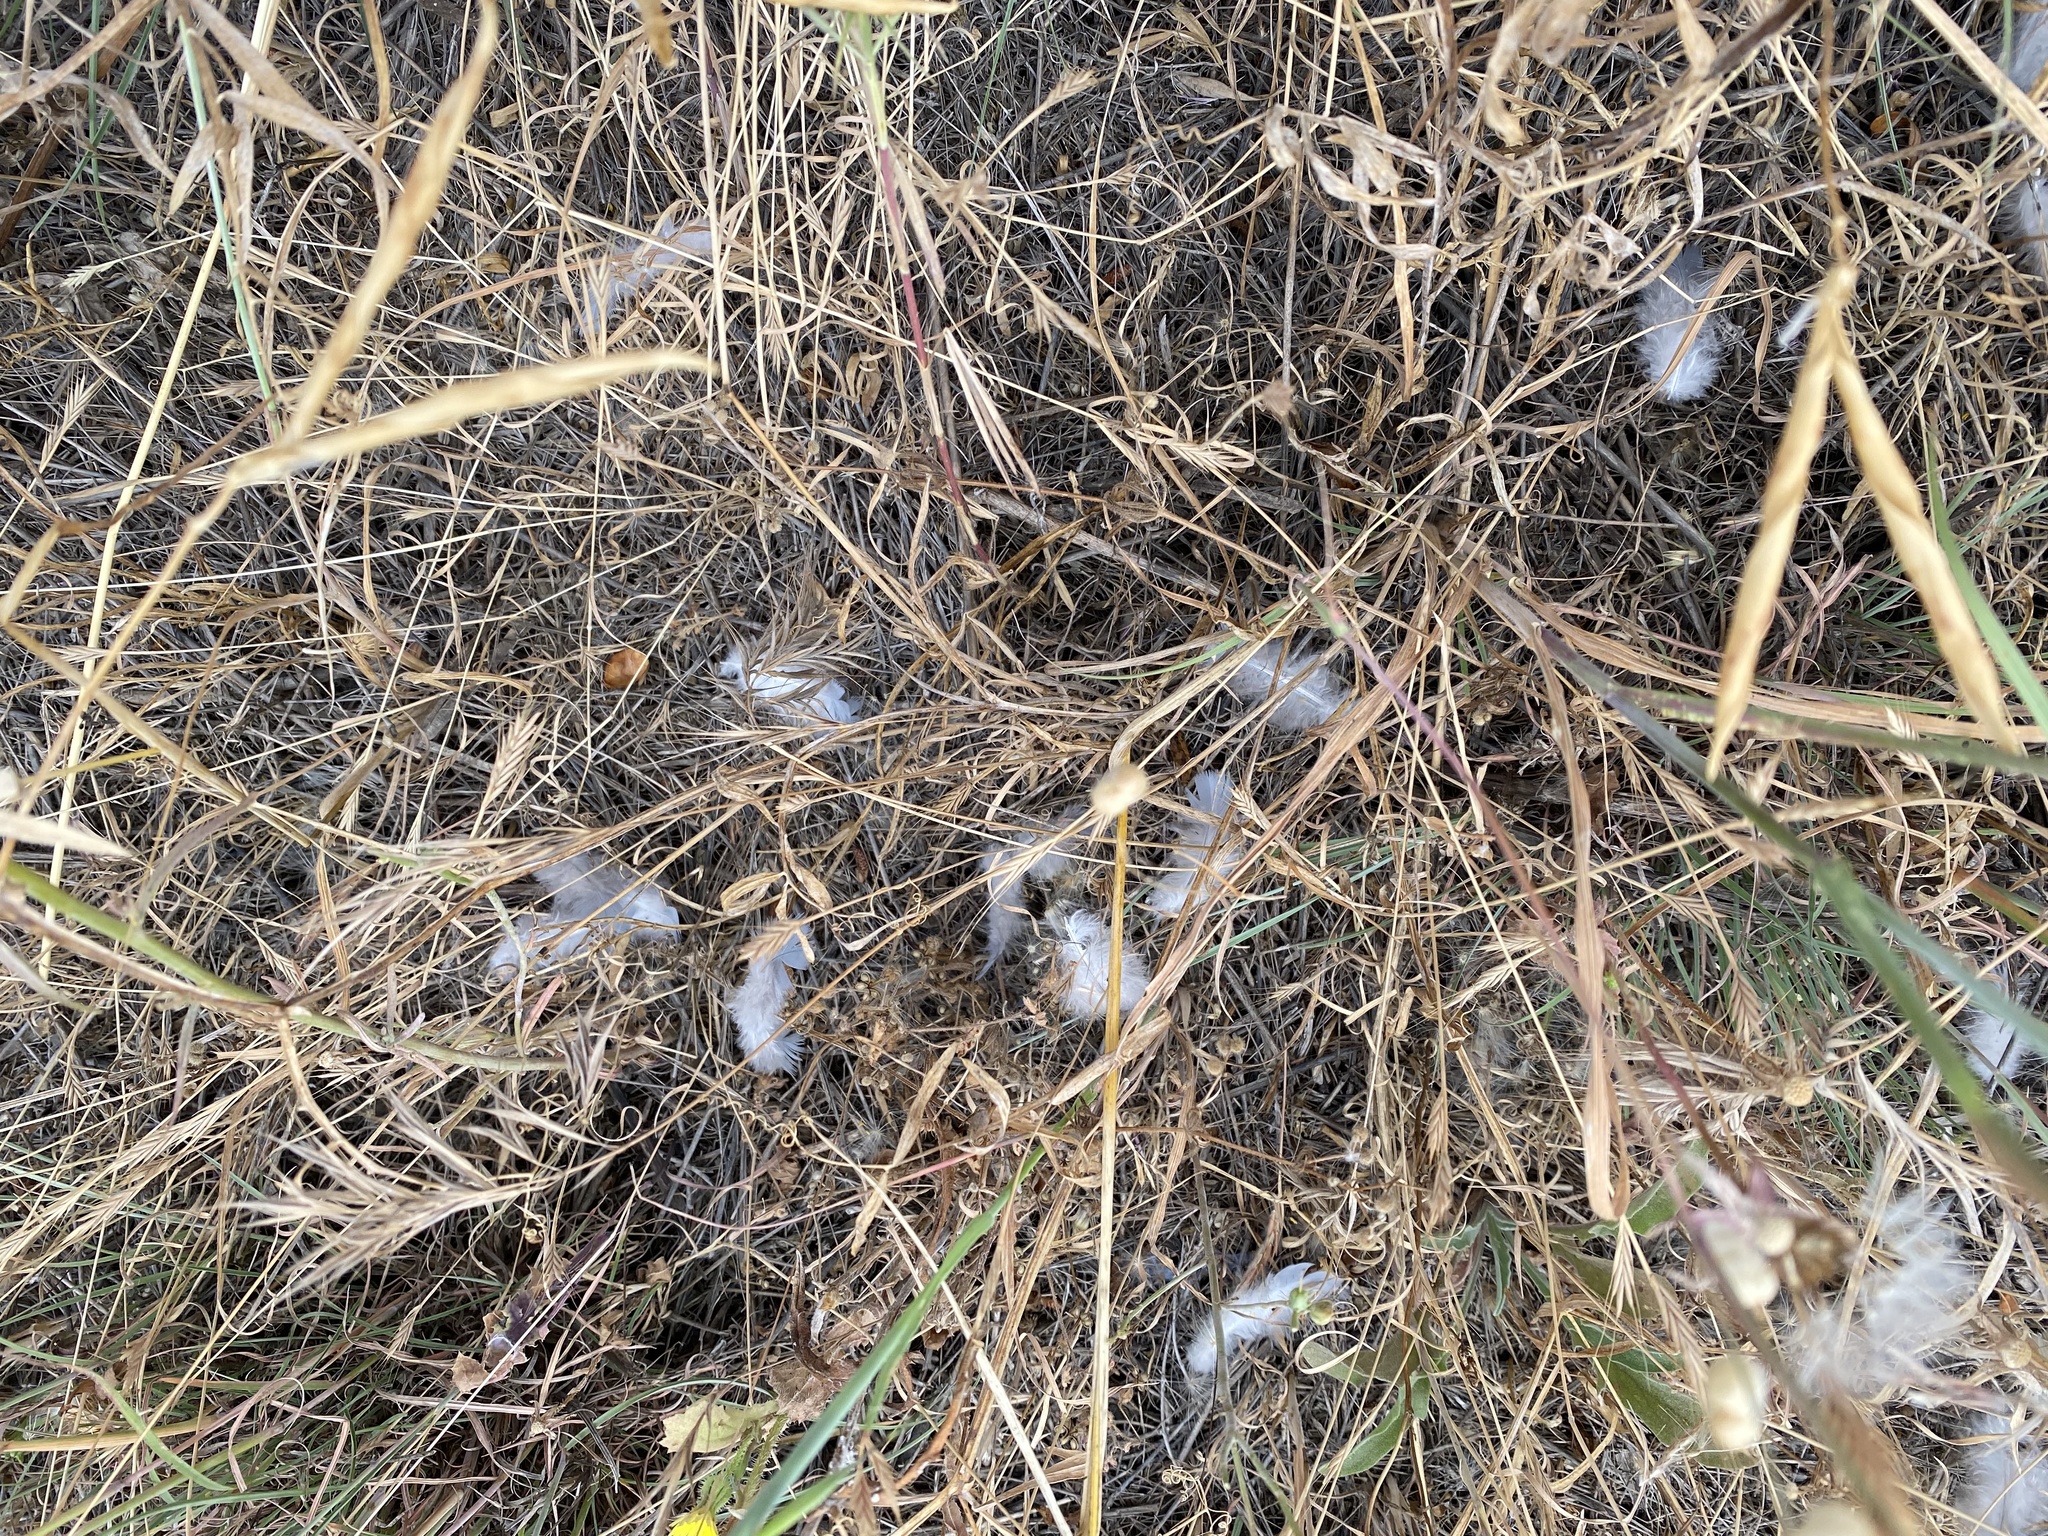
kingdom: Animalia
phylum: Chordata
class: Aves
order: Columbiformes
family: Columbidae
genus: Columba
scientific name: Columba palumbus
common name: Common wood pigeon
